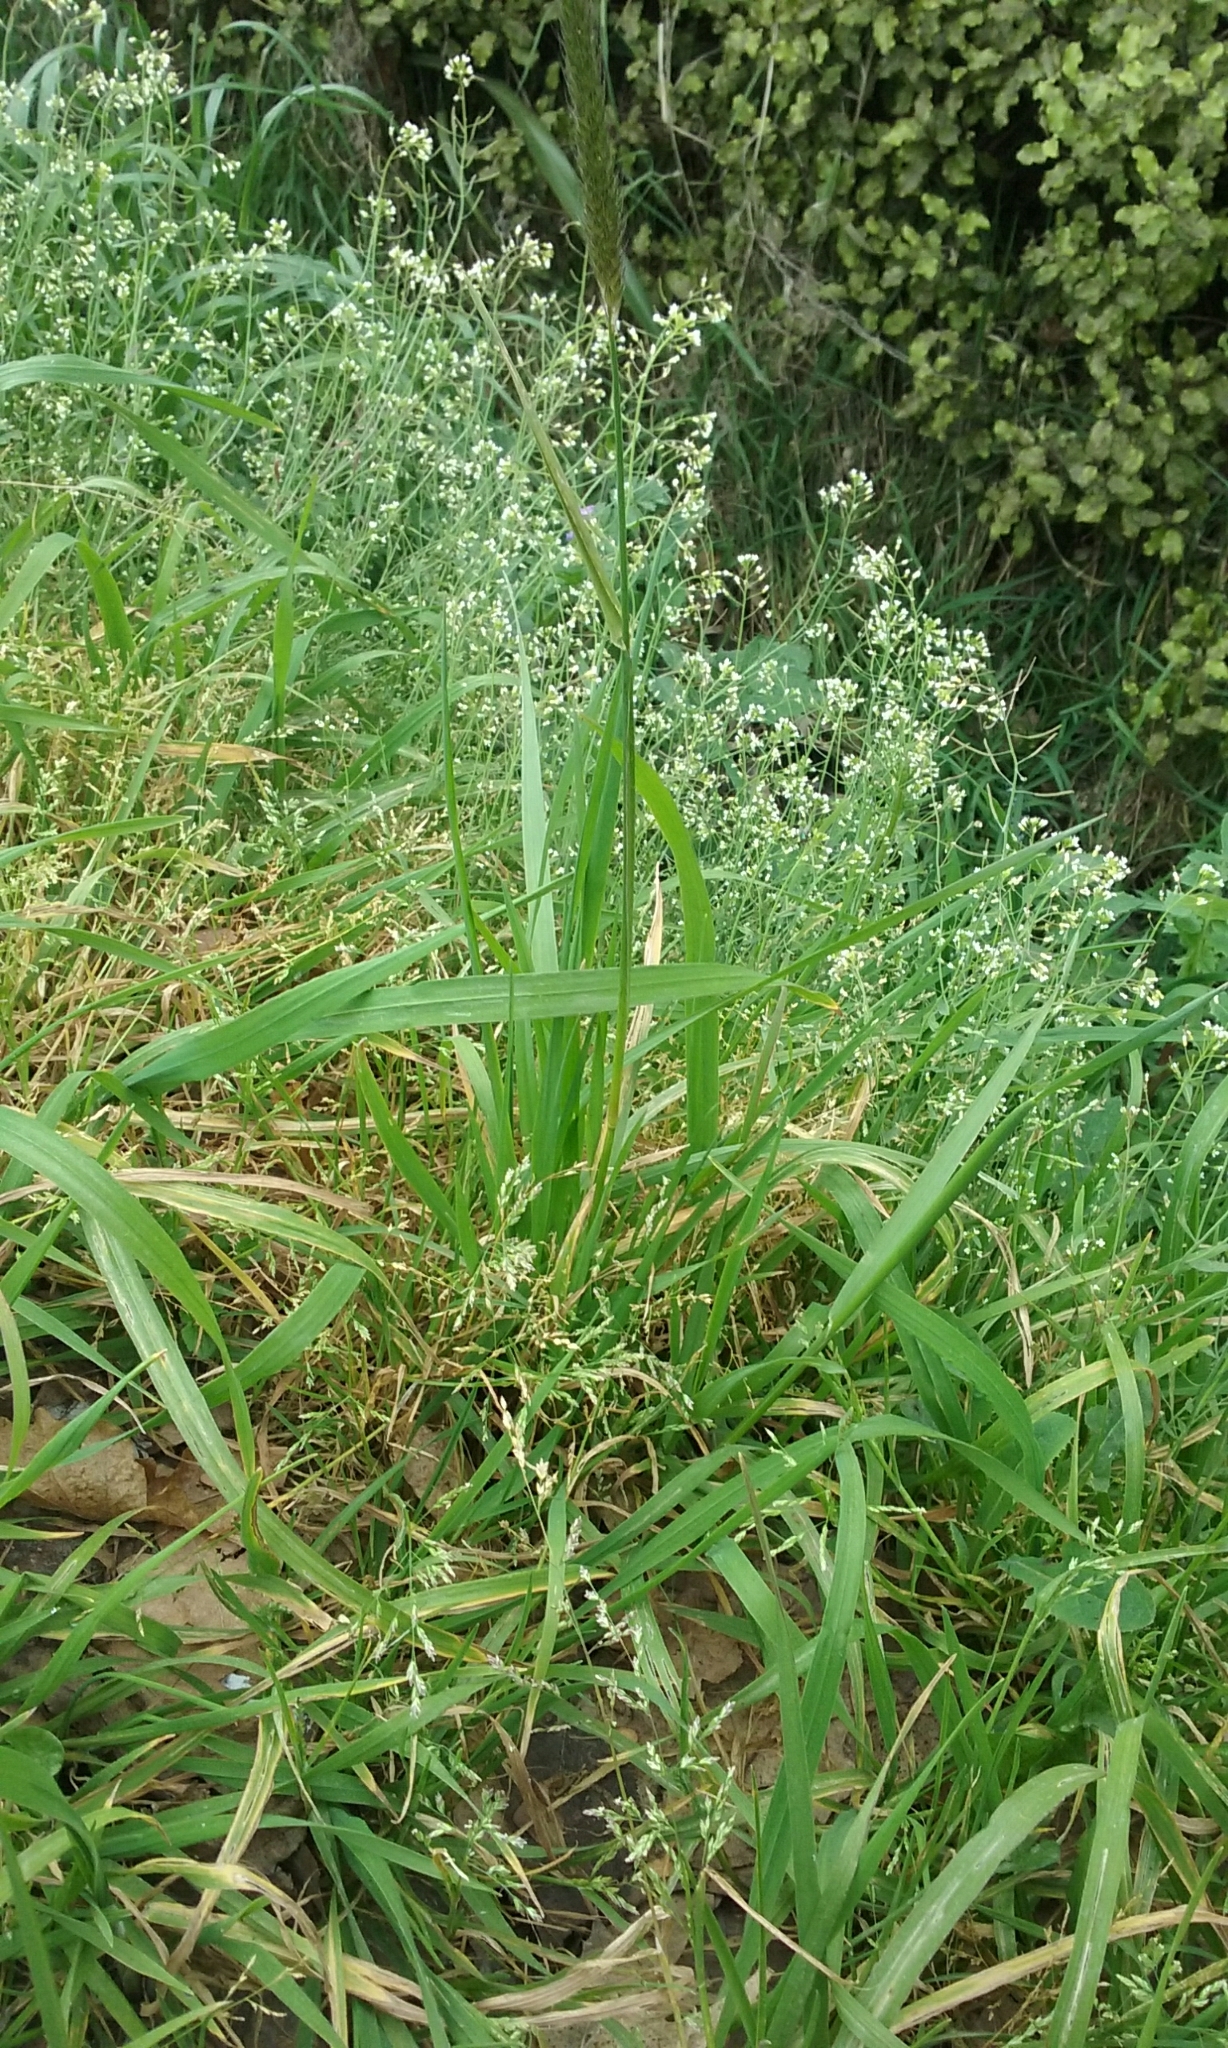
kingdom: Plantae
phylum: Tracheophyta
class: Liliopsida
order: Poales
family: Poaceae
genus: Alopecurus
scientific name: Alopecurus pratensis
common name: Meadow foxtail
